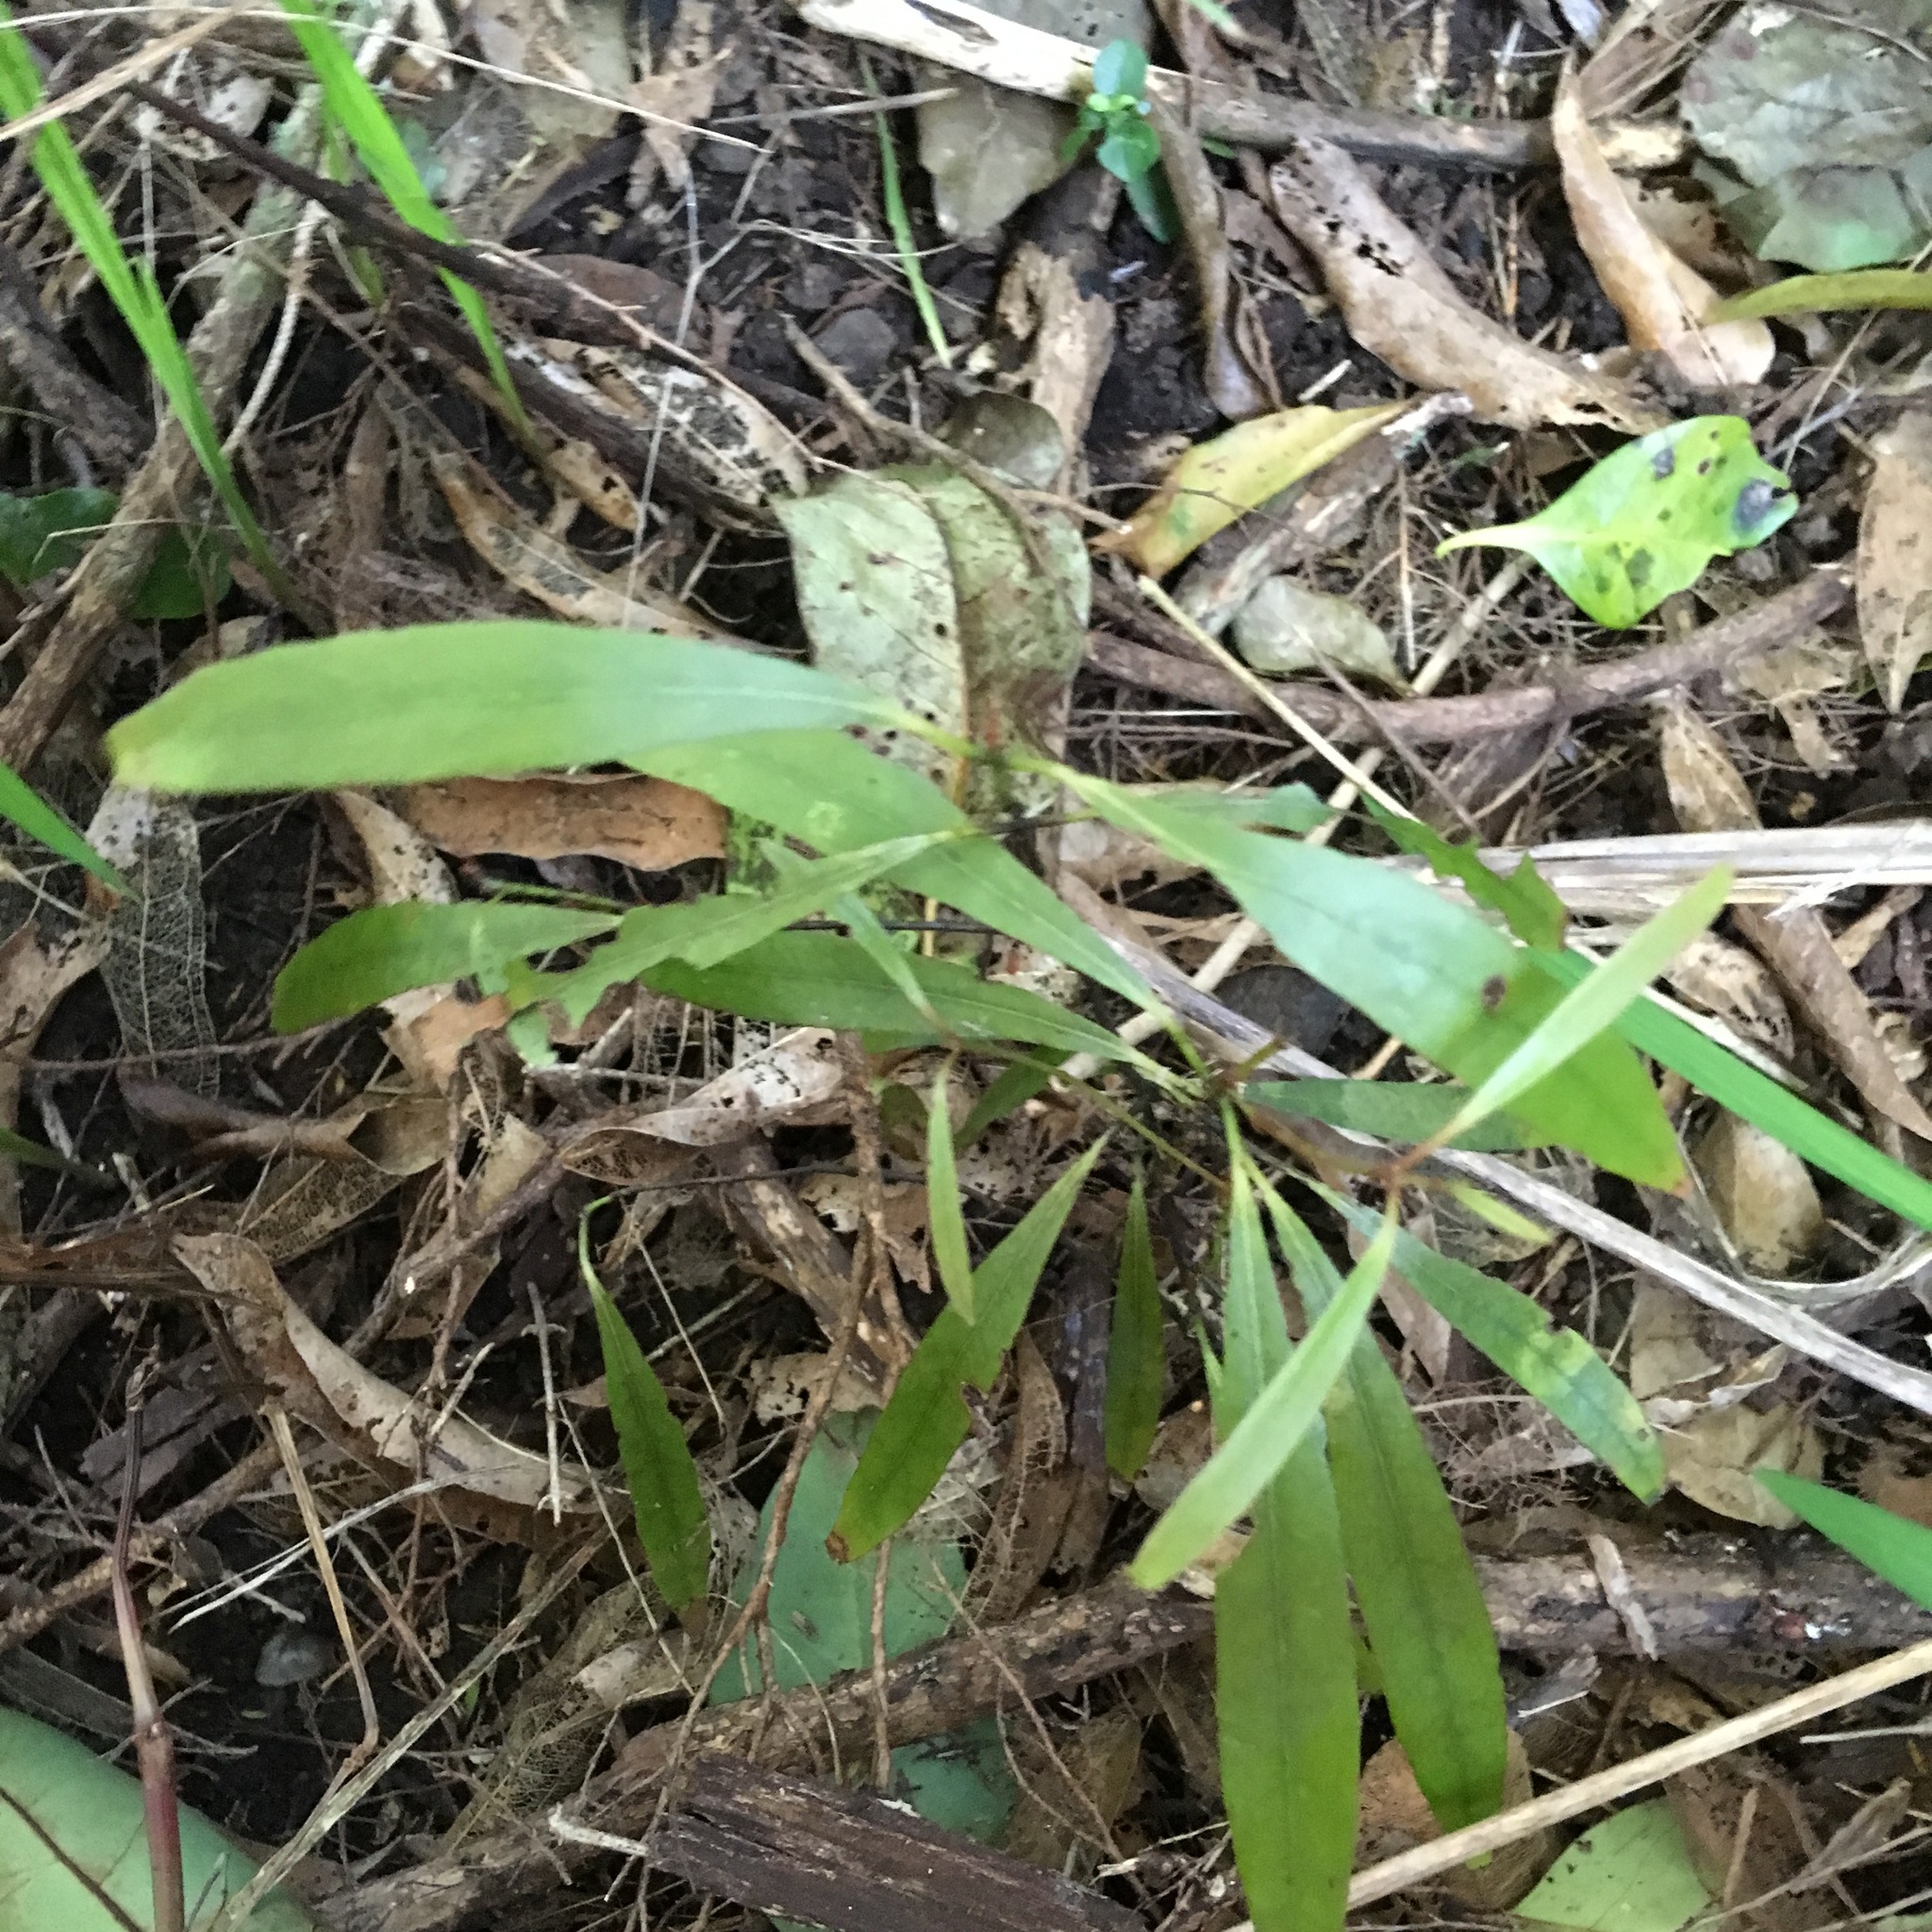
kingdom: Plantae
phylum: Tracheophyta
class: Magnoliopsida
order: Laurales
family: Lauraceae
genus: Beilschmiedia
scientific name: Beilschmiedia tawa
